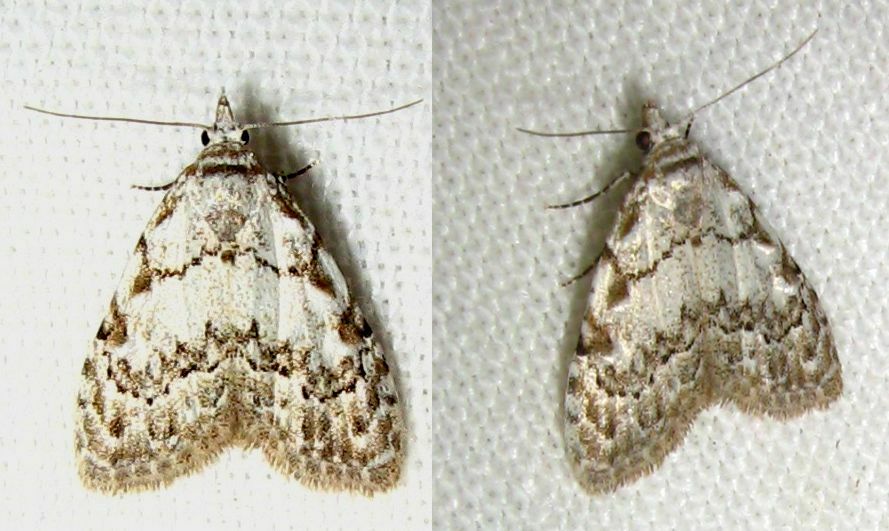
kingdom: Animalia
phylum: Arthropoda
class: Insecta
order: Lepidoptera
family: Nolidae
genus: Nola
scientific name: Nola confusalis
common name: Least black arches
